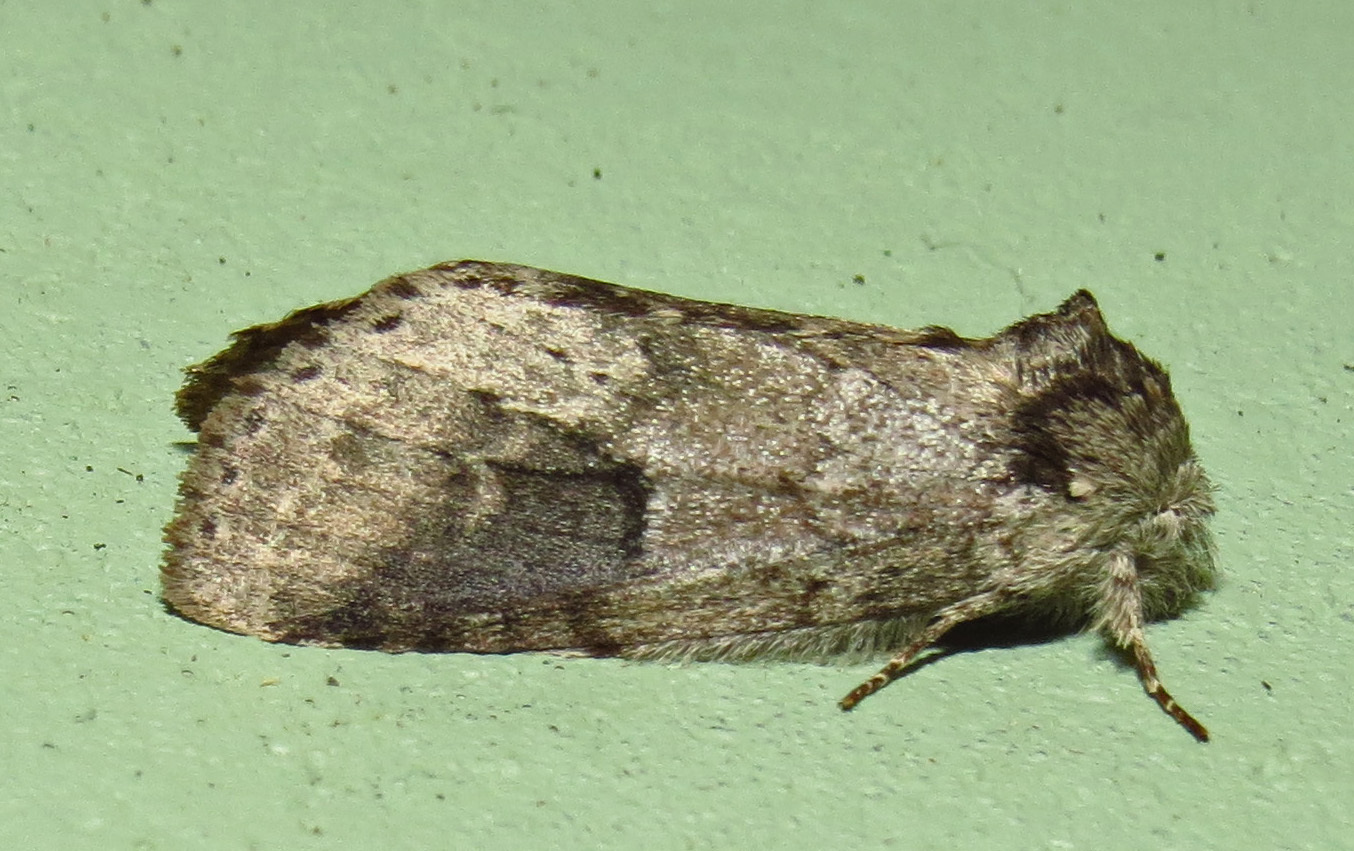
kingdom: Animalia
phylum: Arthropoda
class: Insecta
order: Lepidoptera
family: Notodontidae
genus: Lochmaeus
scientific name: Lochmaeus manteo
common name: Variable oakleaf caterpillar moth
